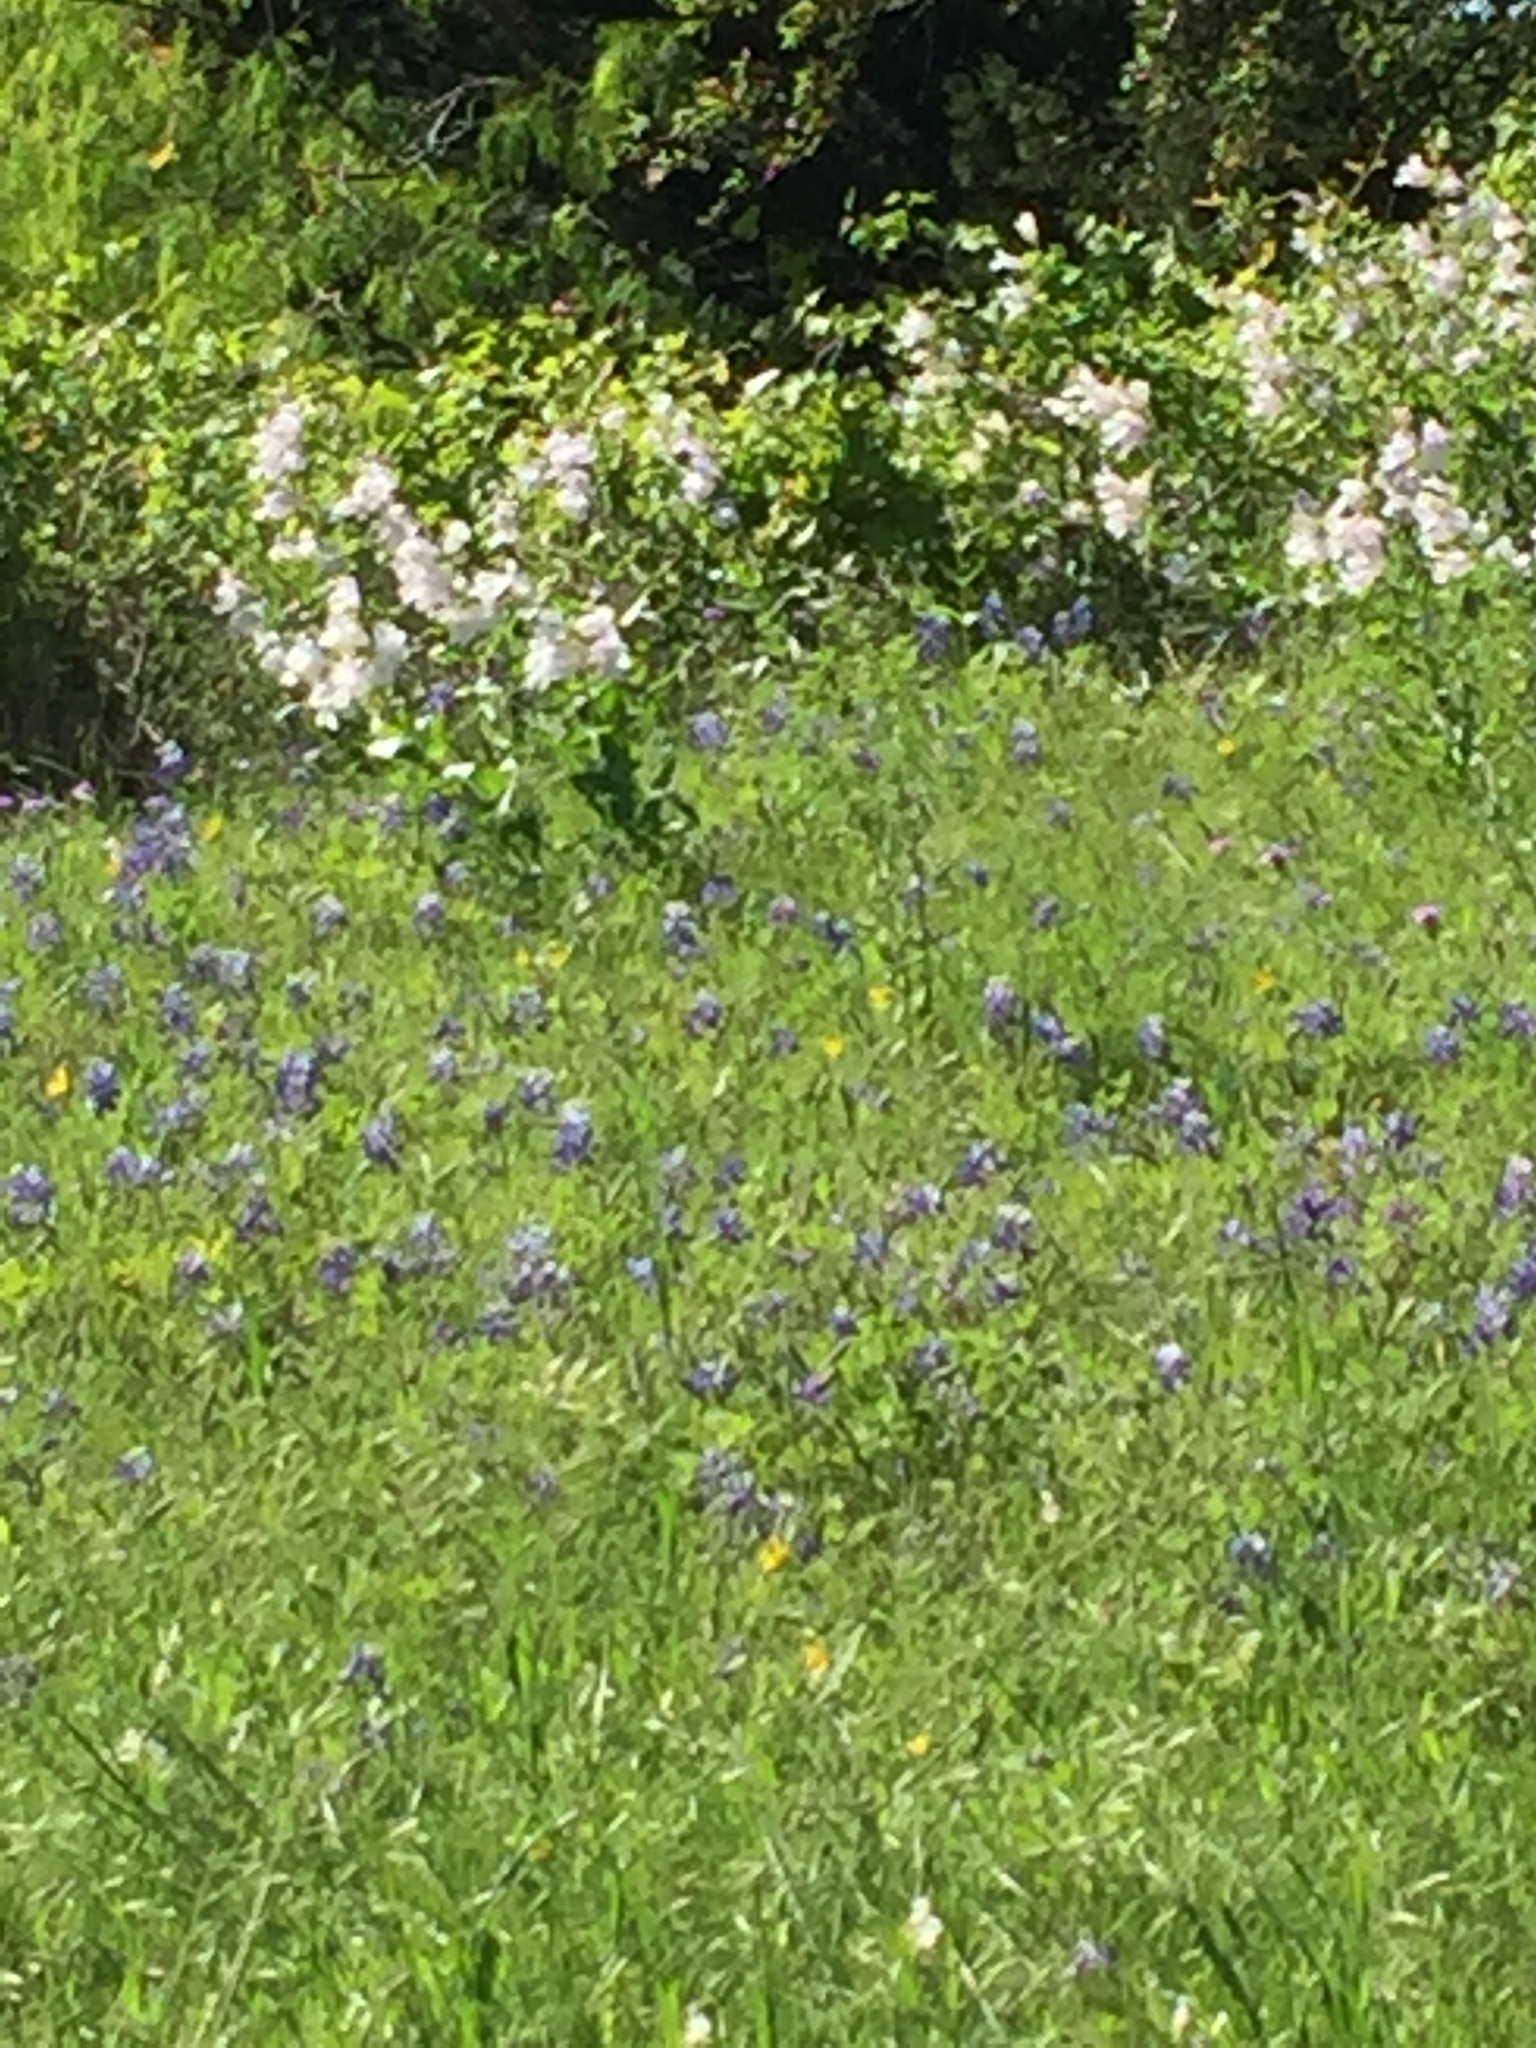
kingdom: Plantae
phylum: Tracheophyta
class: Magnoliopsida
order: Lamiales
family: Plantaginaceae
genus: Penstemon
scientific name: Penstemon cobaea
